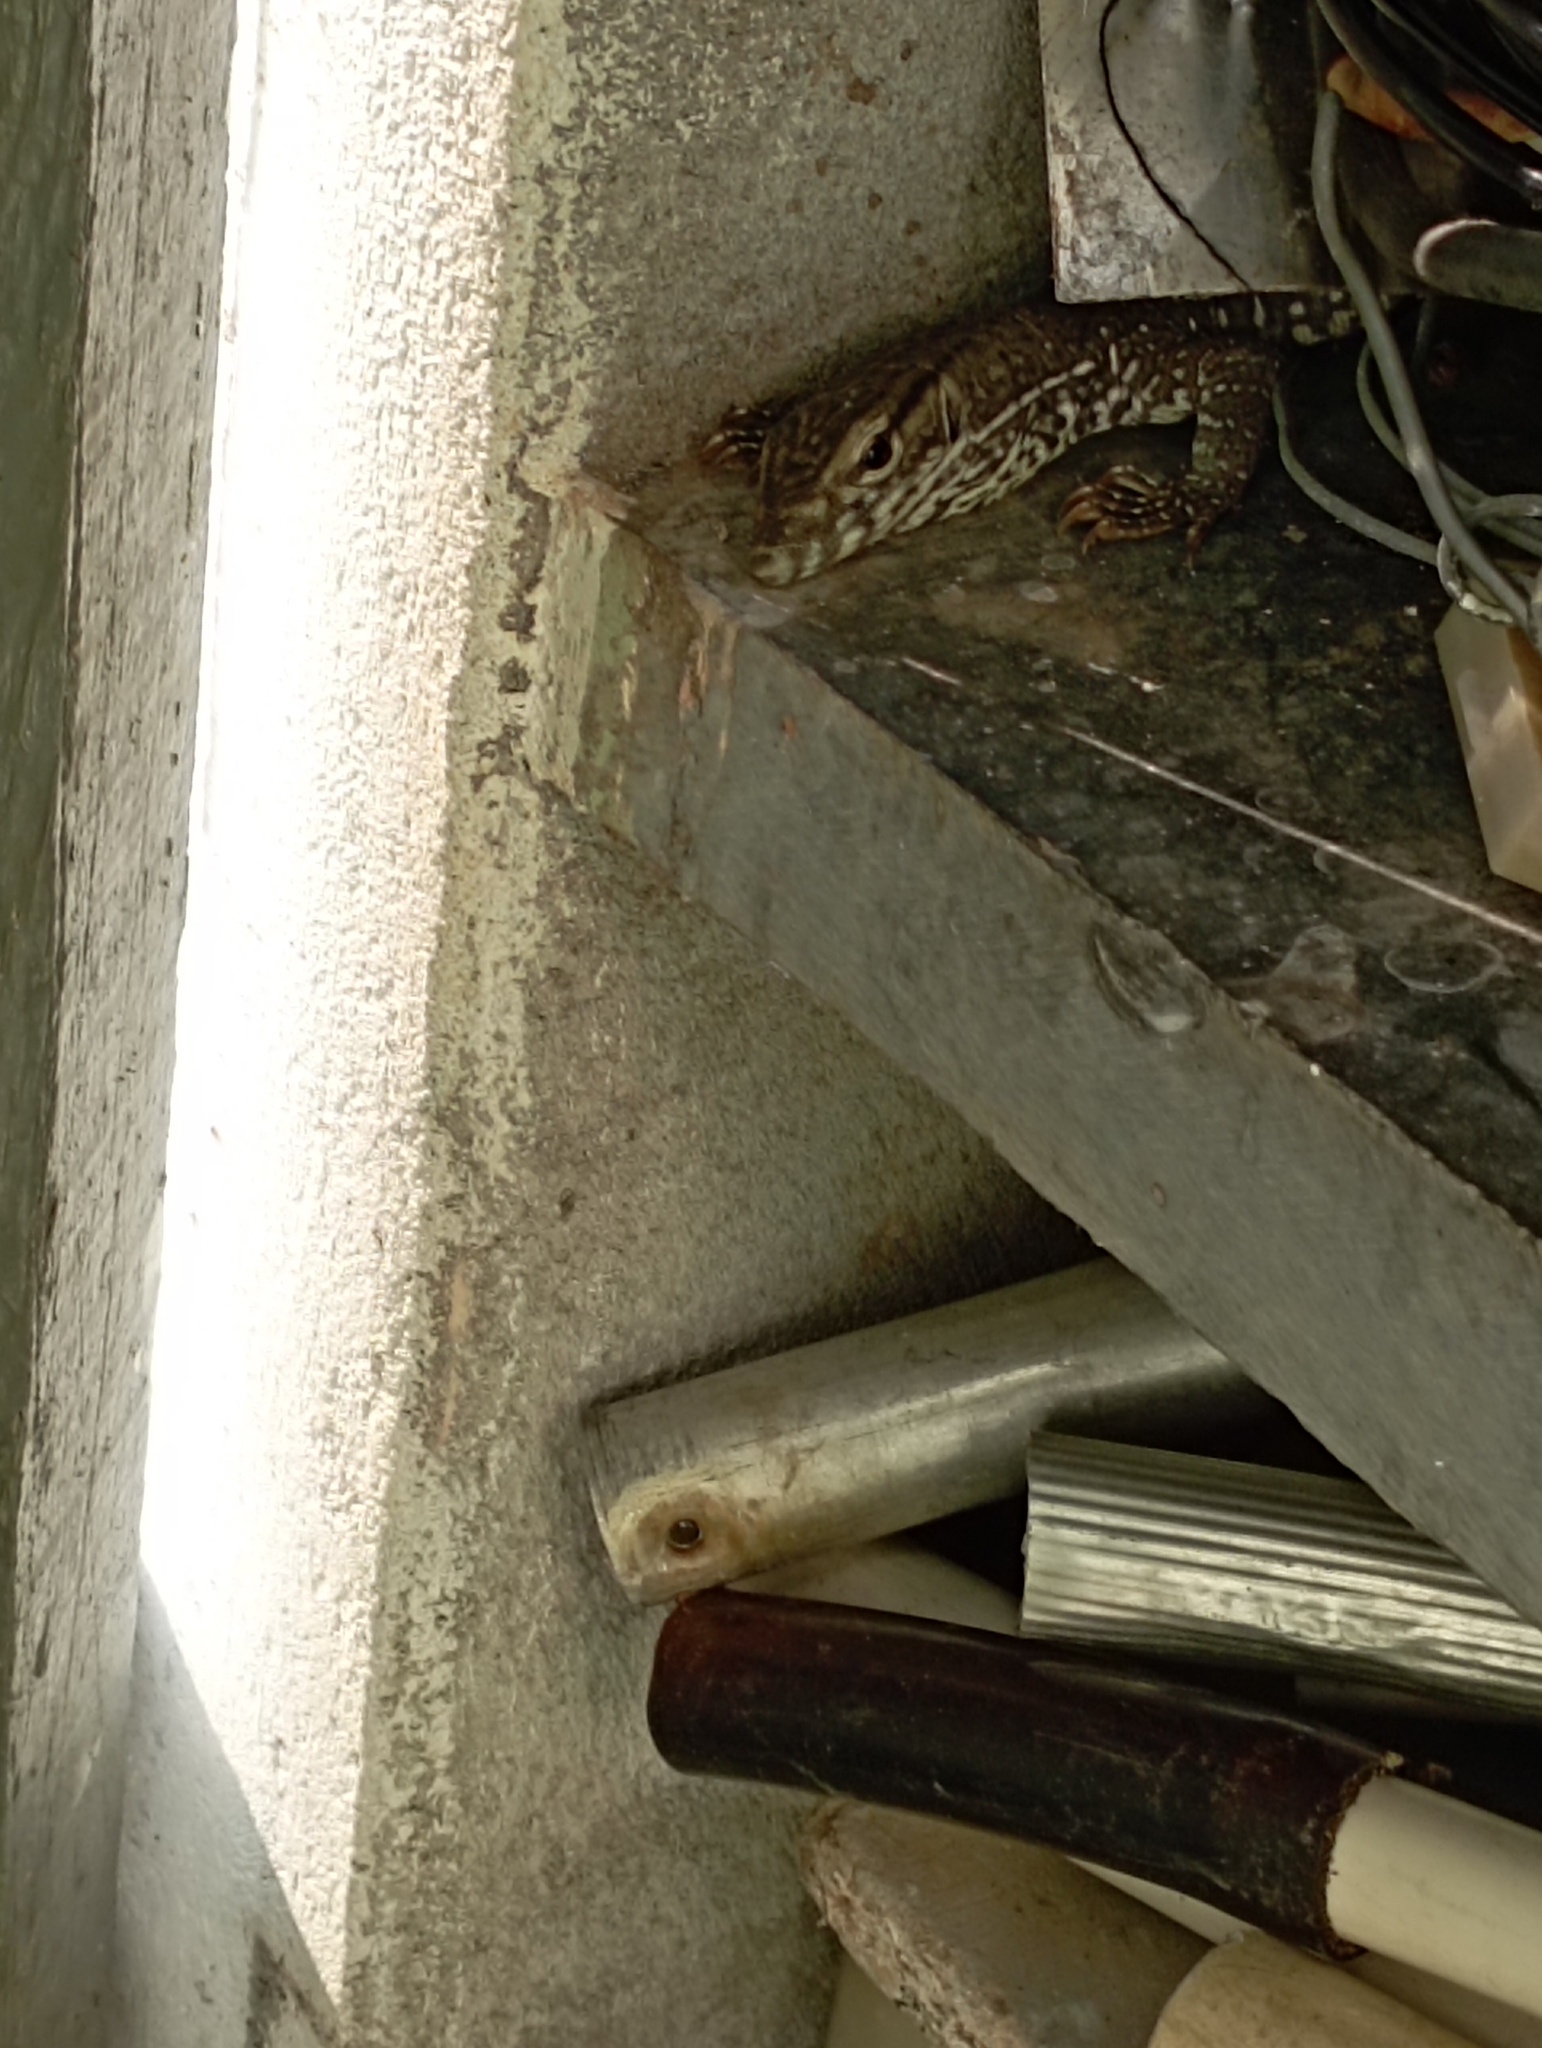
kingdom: Animalia
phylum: Chordata
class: Squamata
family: Varanidae
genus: Varanus
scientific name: Varanus bengalensis
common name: Bengal monitor
